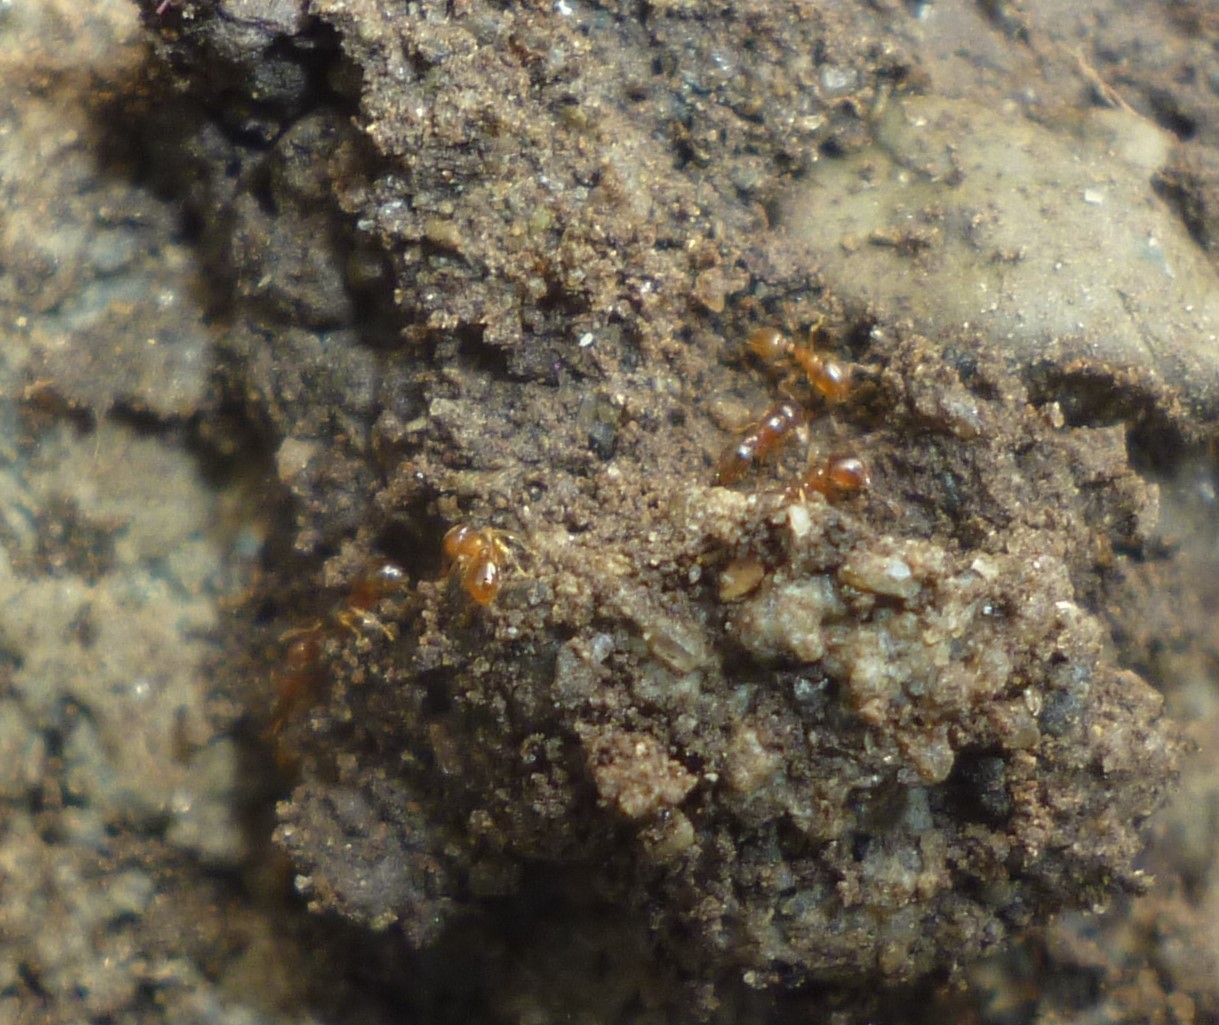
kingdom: Animalia
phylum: Arthropoda
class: Insecta
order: Hymenoptera
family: Formicidae
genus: Solenopsis
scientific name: Solenopsis molesta
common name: Thief ant
